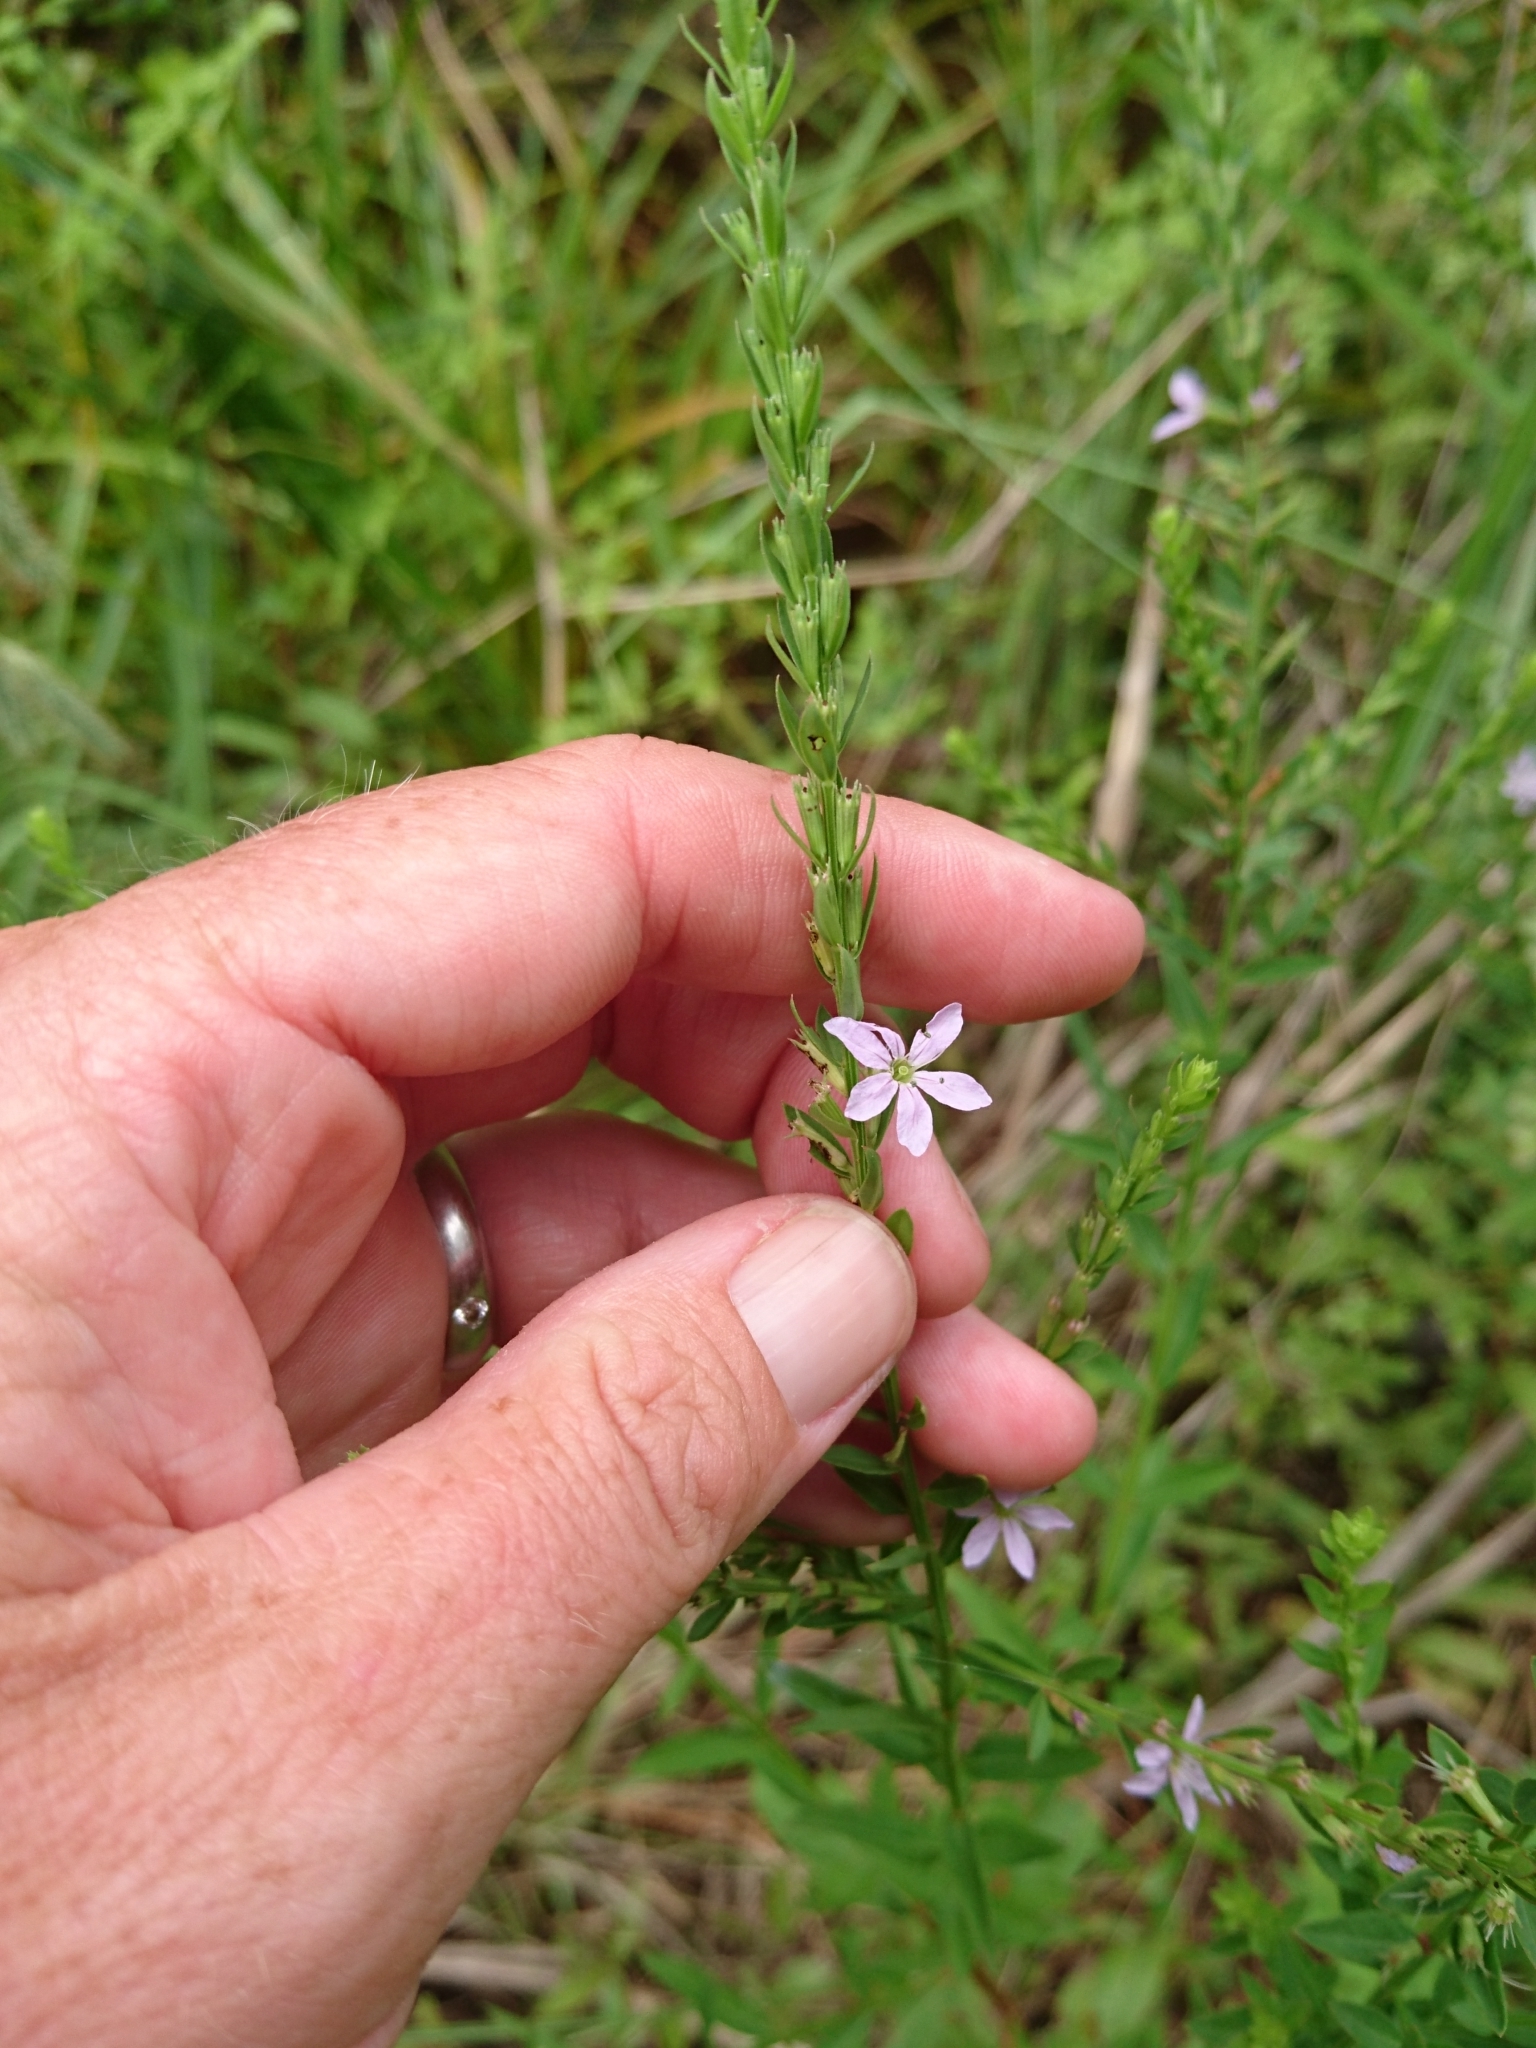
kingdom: Plantae
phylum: Tracheophyta
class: Magnoliopsida
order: Myrtales
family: Lythraceae
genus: Lythrum
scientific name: Lythrum alatum
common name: Winged loosestrife
